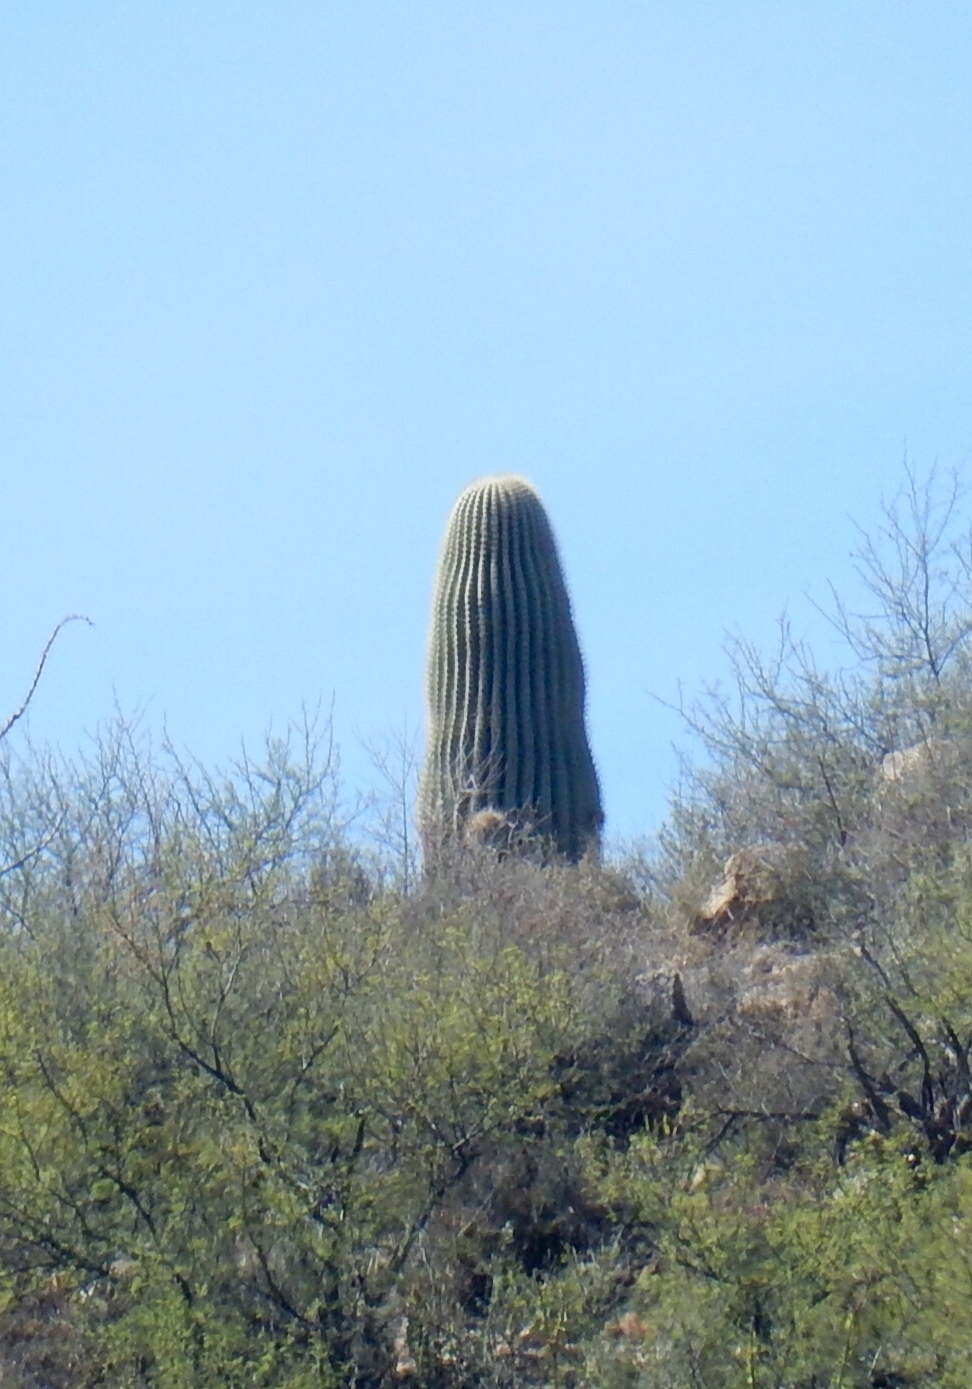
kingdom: Plantae
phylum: Tracheophyta
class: Magnoliopsida
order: Caryophyllales
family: Cactaceae
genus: Carnegiea
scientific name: Carnegiea gigantea
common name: Saguaro
